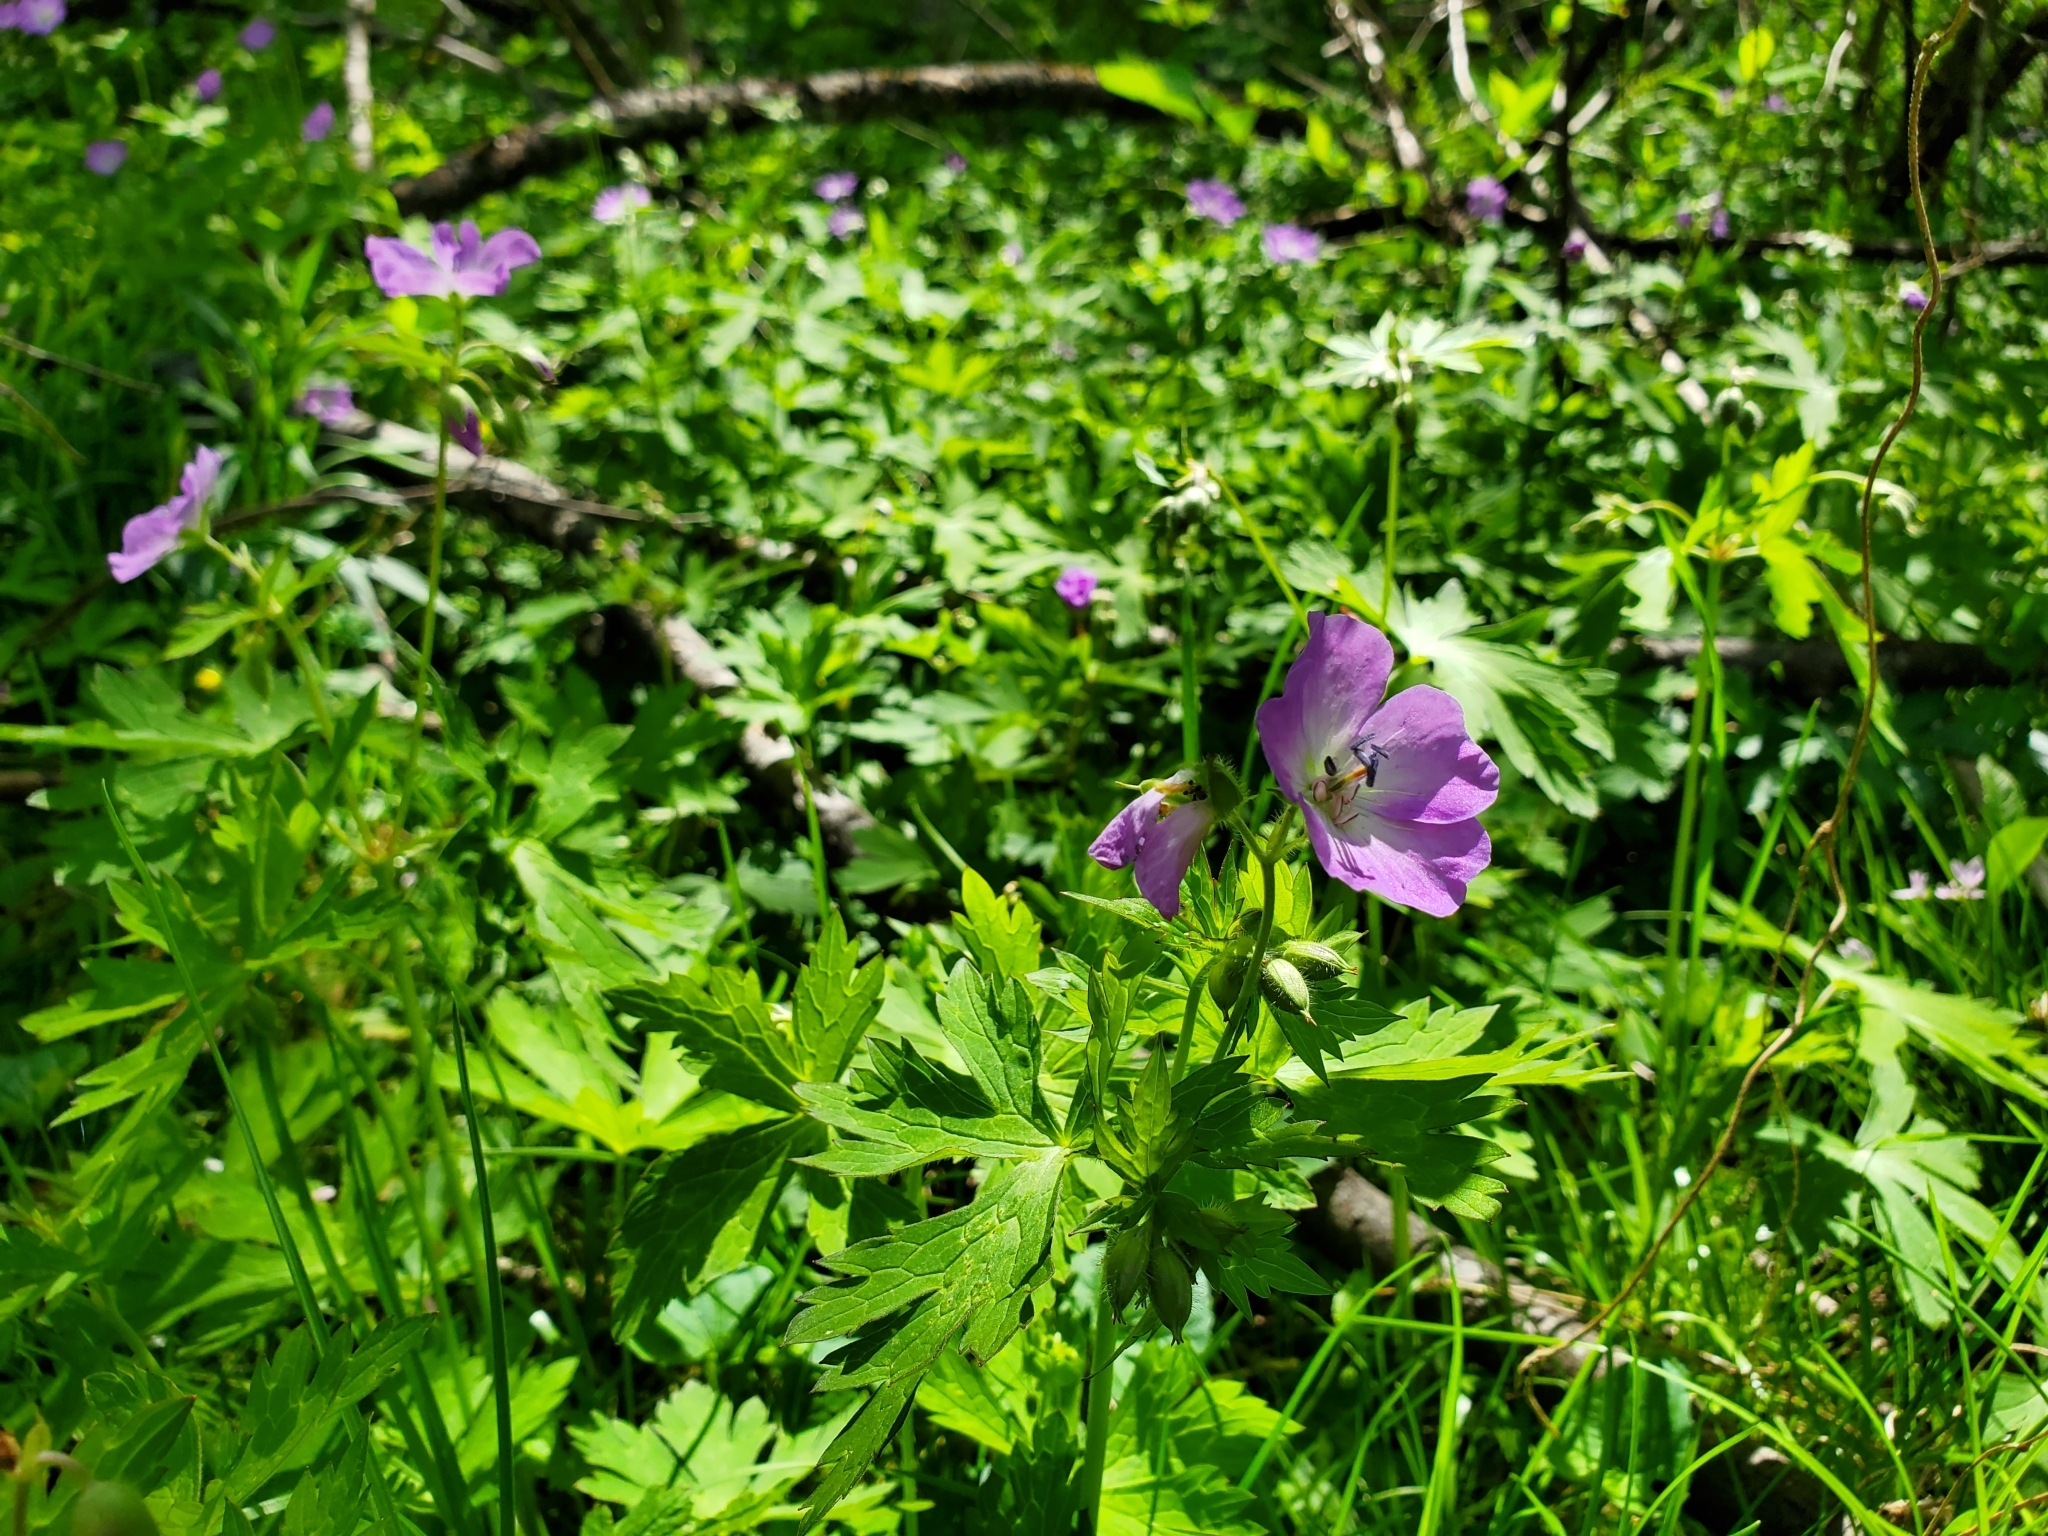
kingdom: Plantae
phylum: Tracheophyta
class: Magnoliopsida
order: Geraniales
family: Geraniaceae
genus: Geranium
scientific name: Geranium maculatum
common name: Spotted geranium
